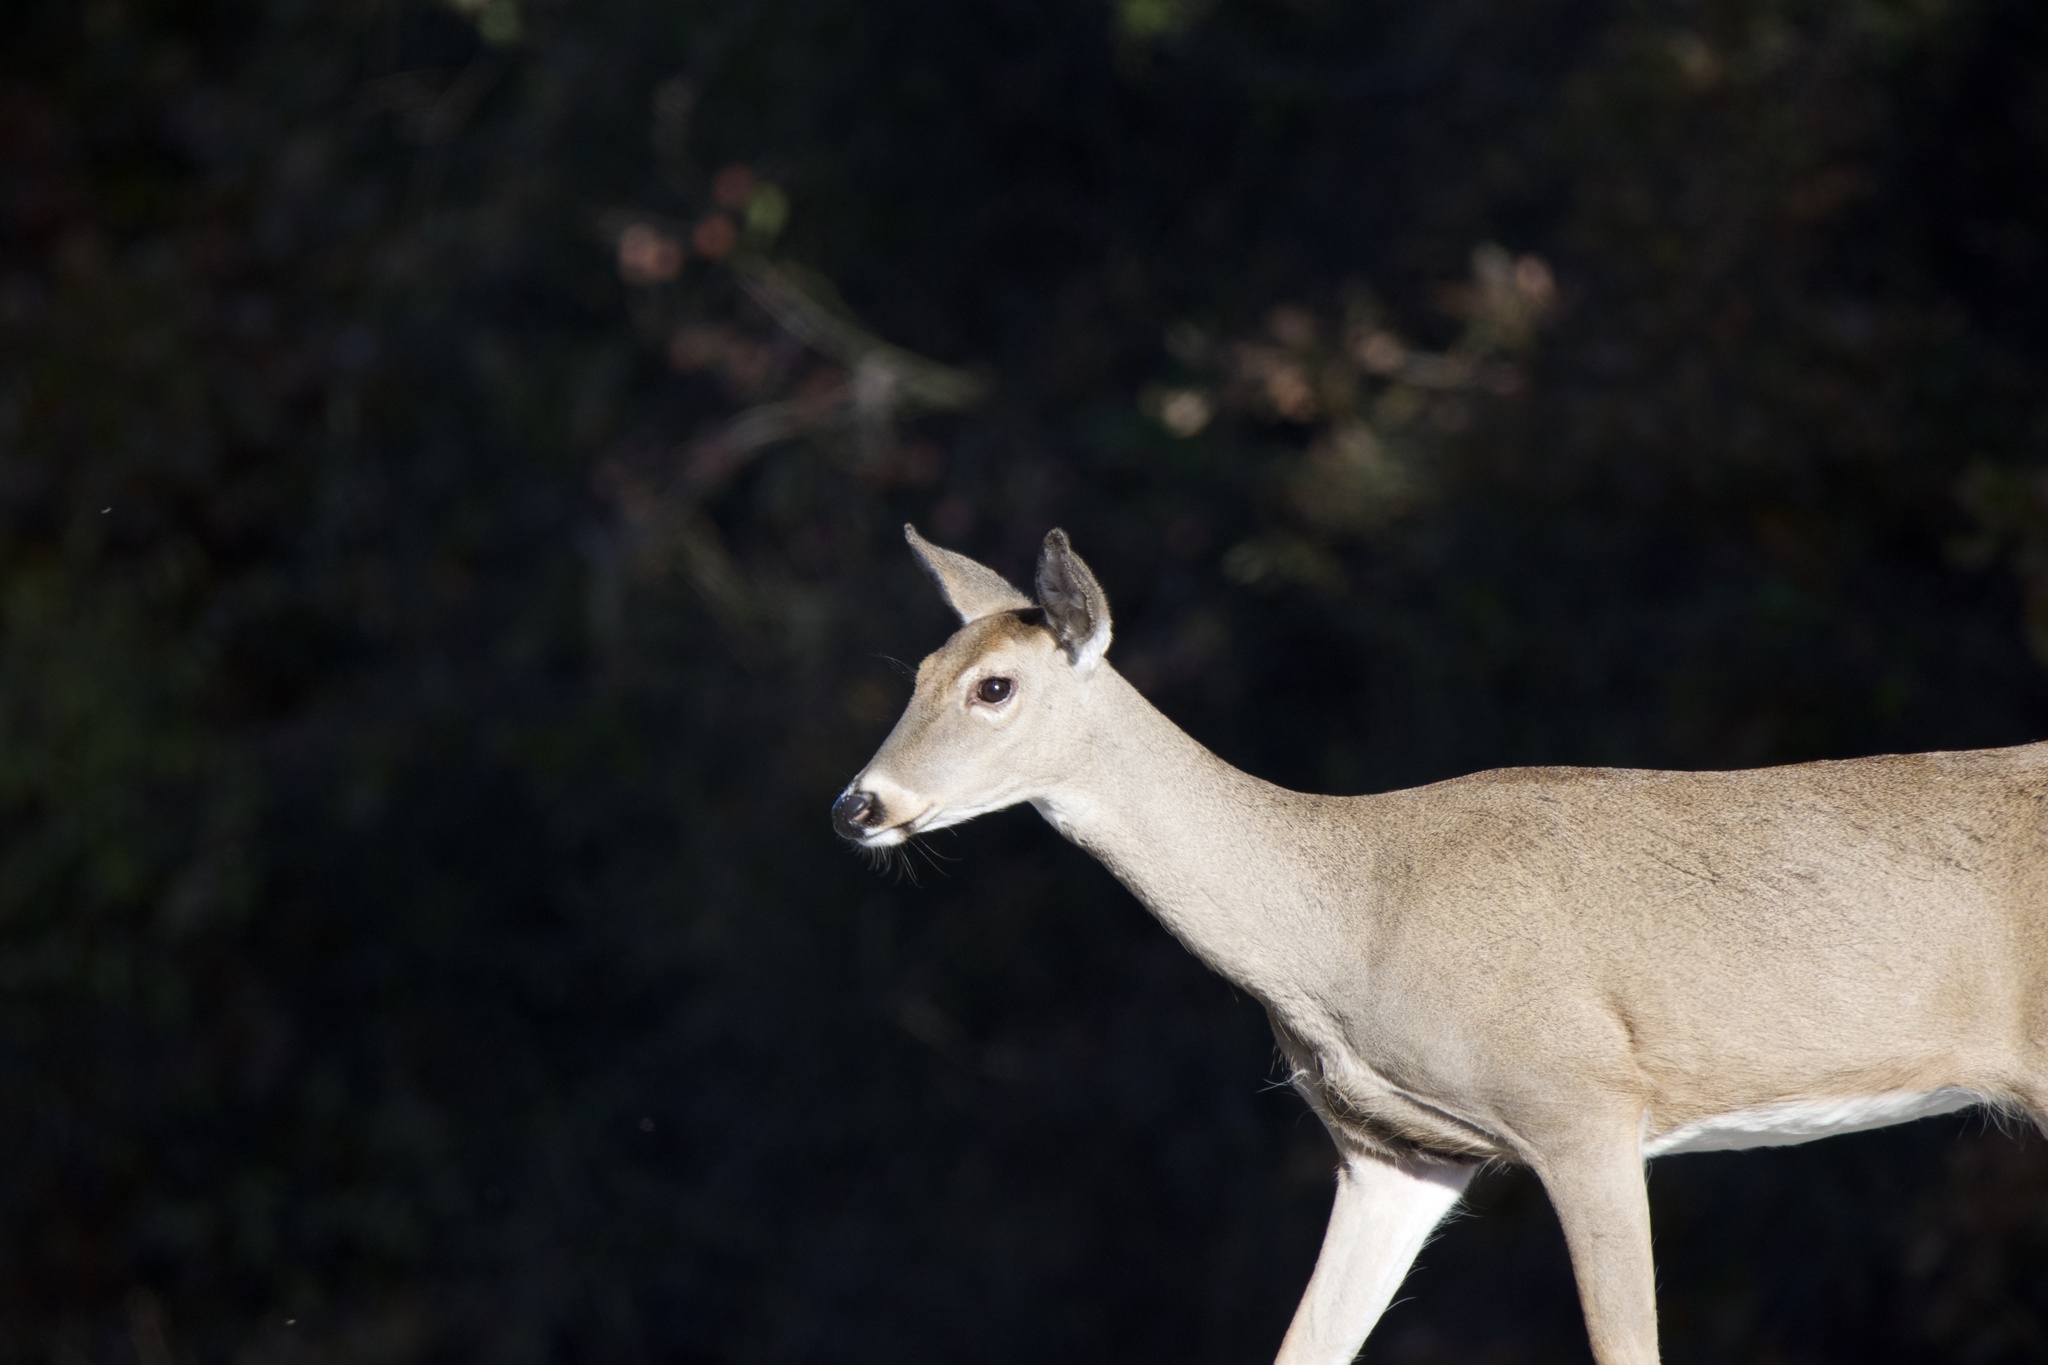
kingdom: Animalia
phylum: Chordata
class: Mammalia
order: Artiodactyla
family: Cervidae
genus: Odocoileus
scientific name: Odocoileus virginianus
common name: White-tailed deer
